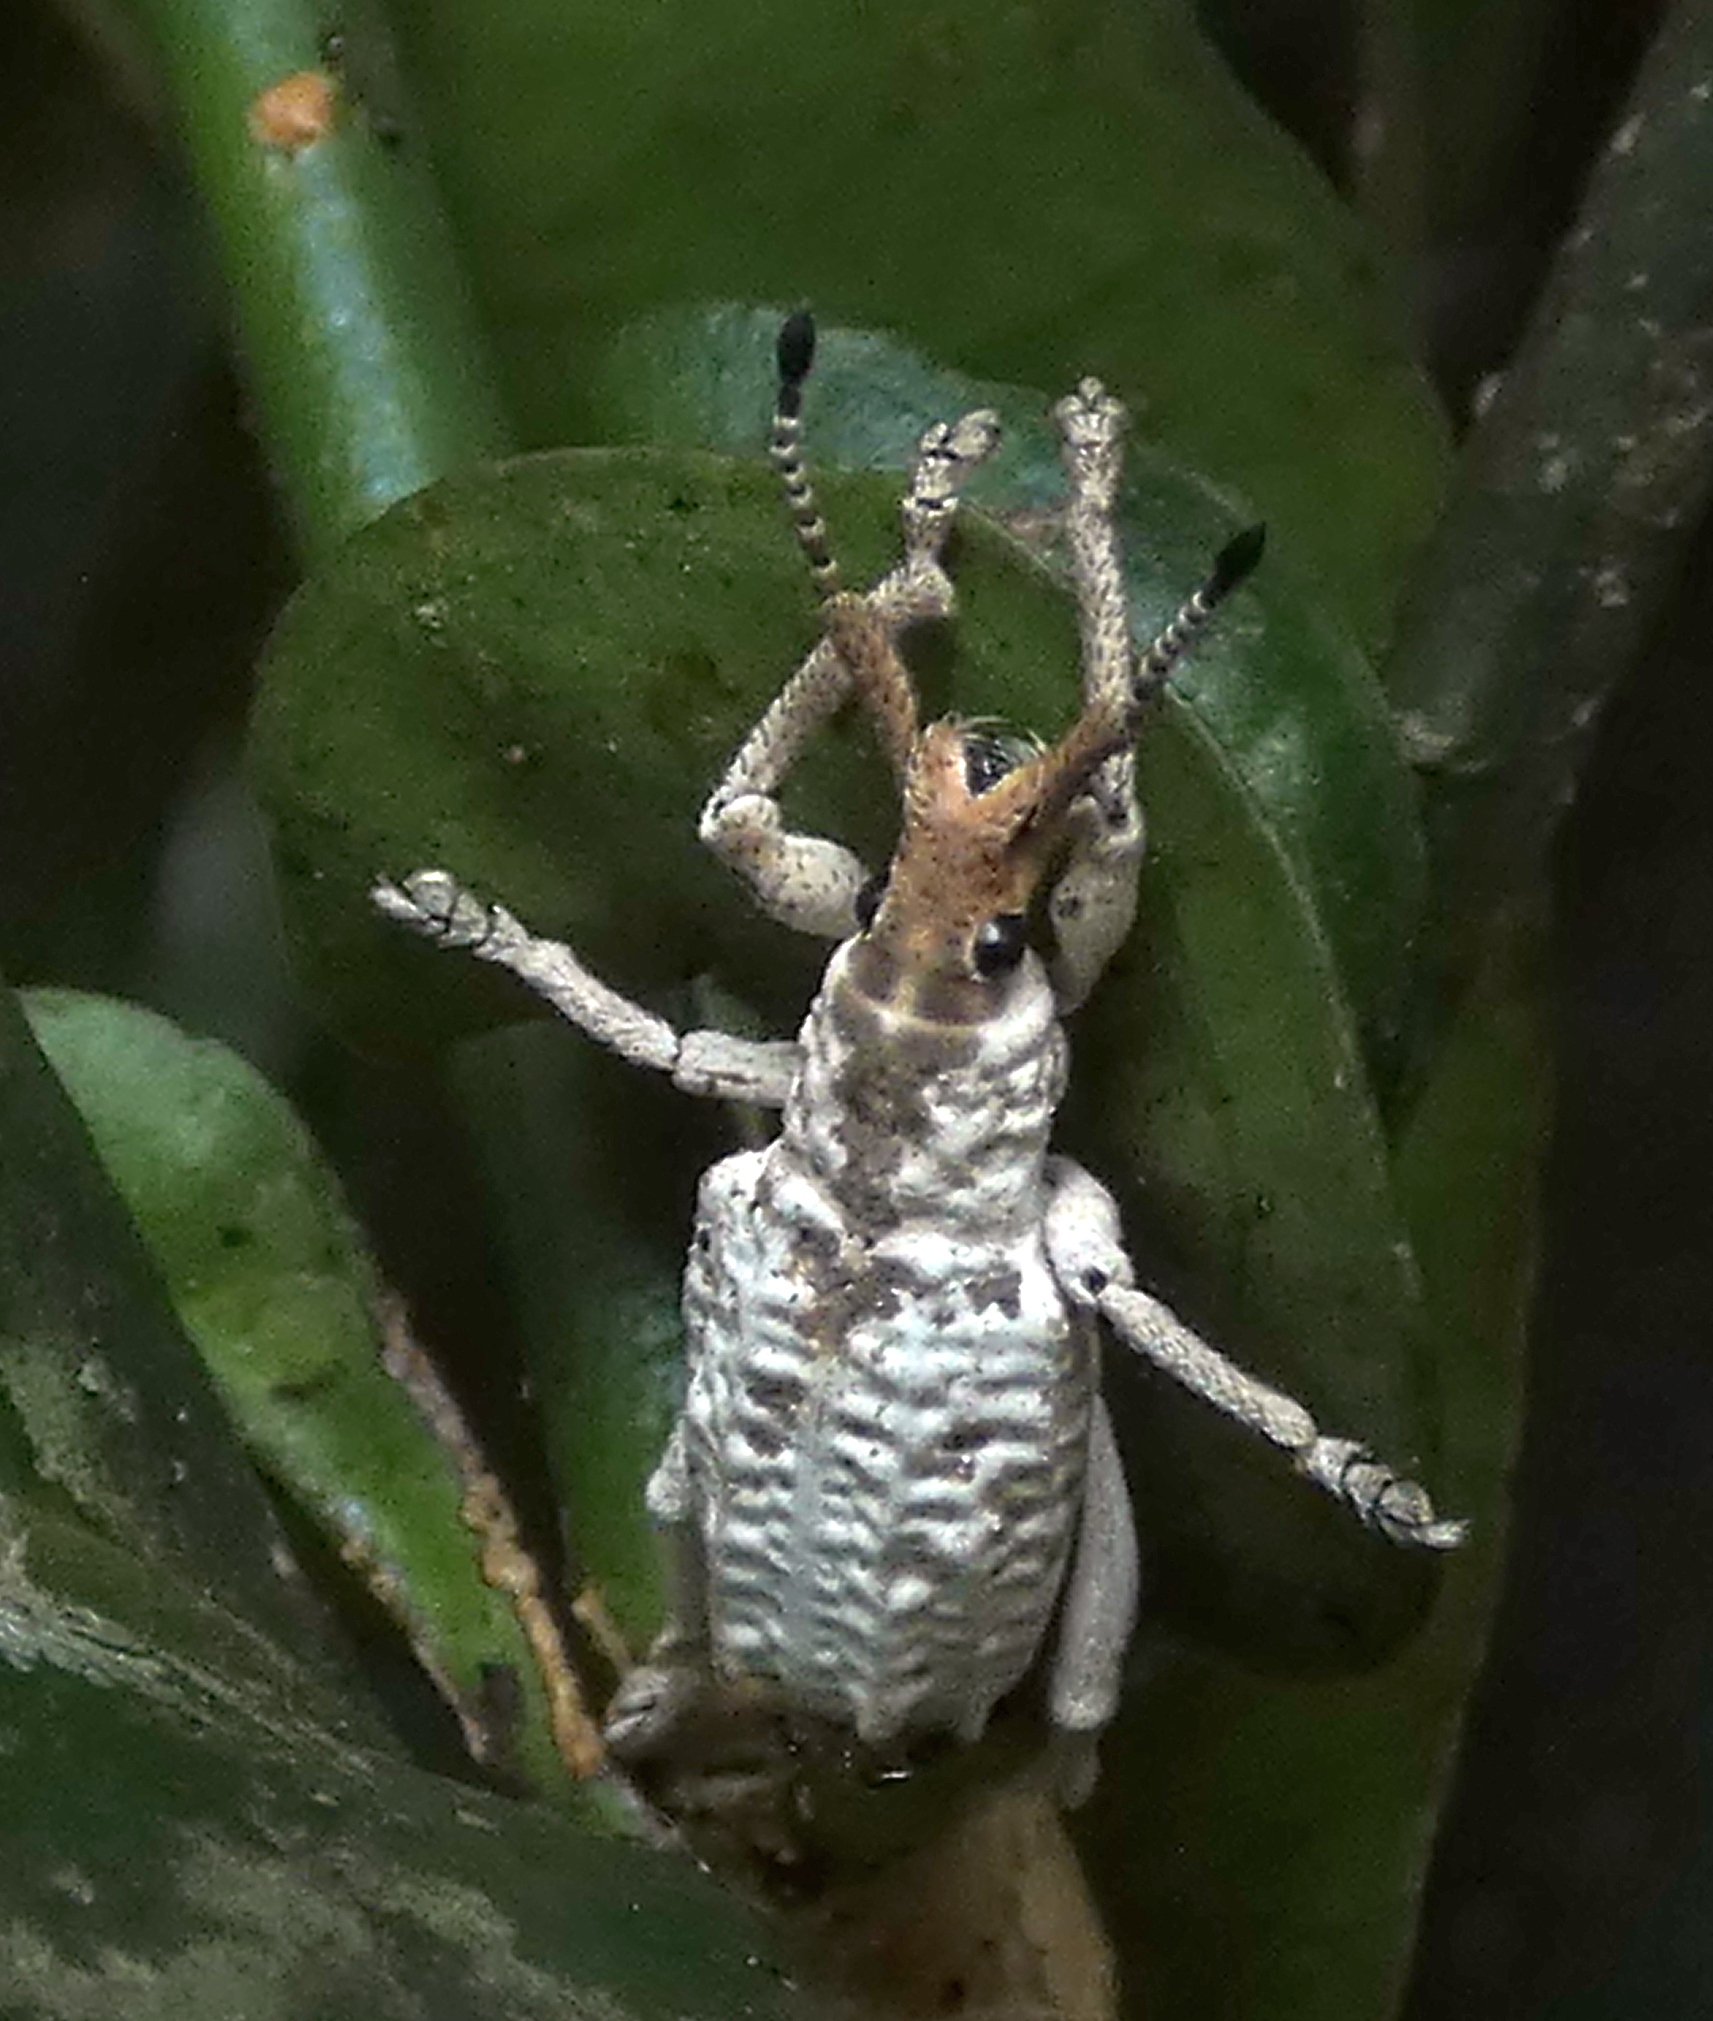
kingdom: Animalia
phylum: Arthropoda
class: Insecta
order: Coleoptera
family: Curculionidae
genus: Compsus
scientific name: Compsus niveus
